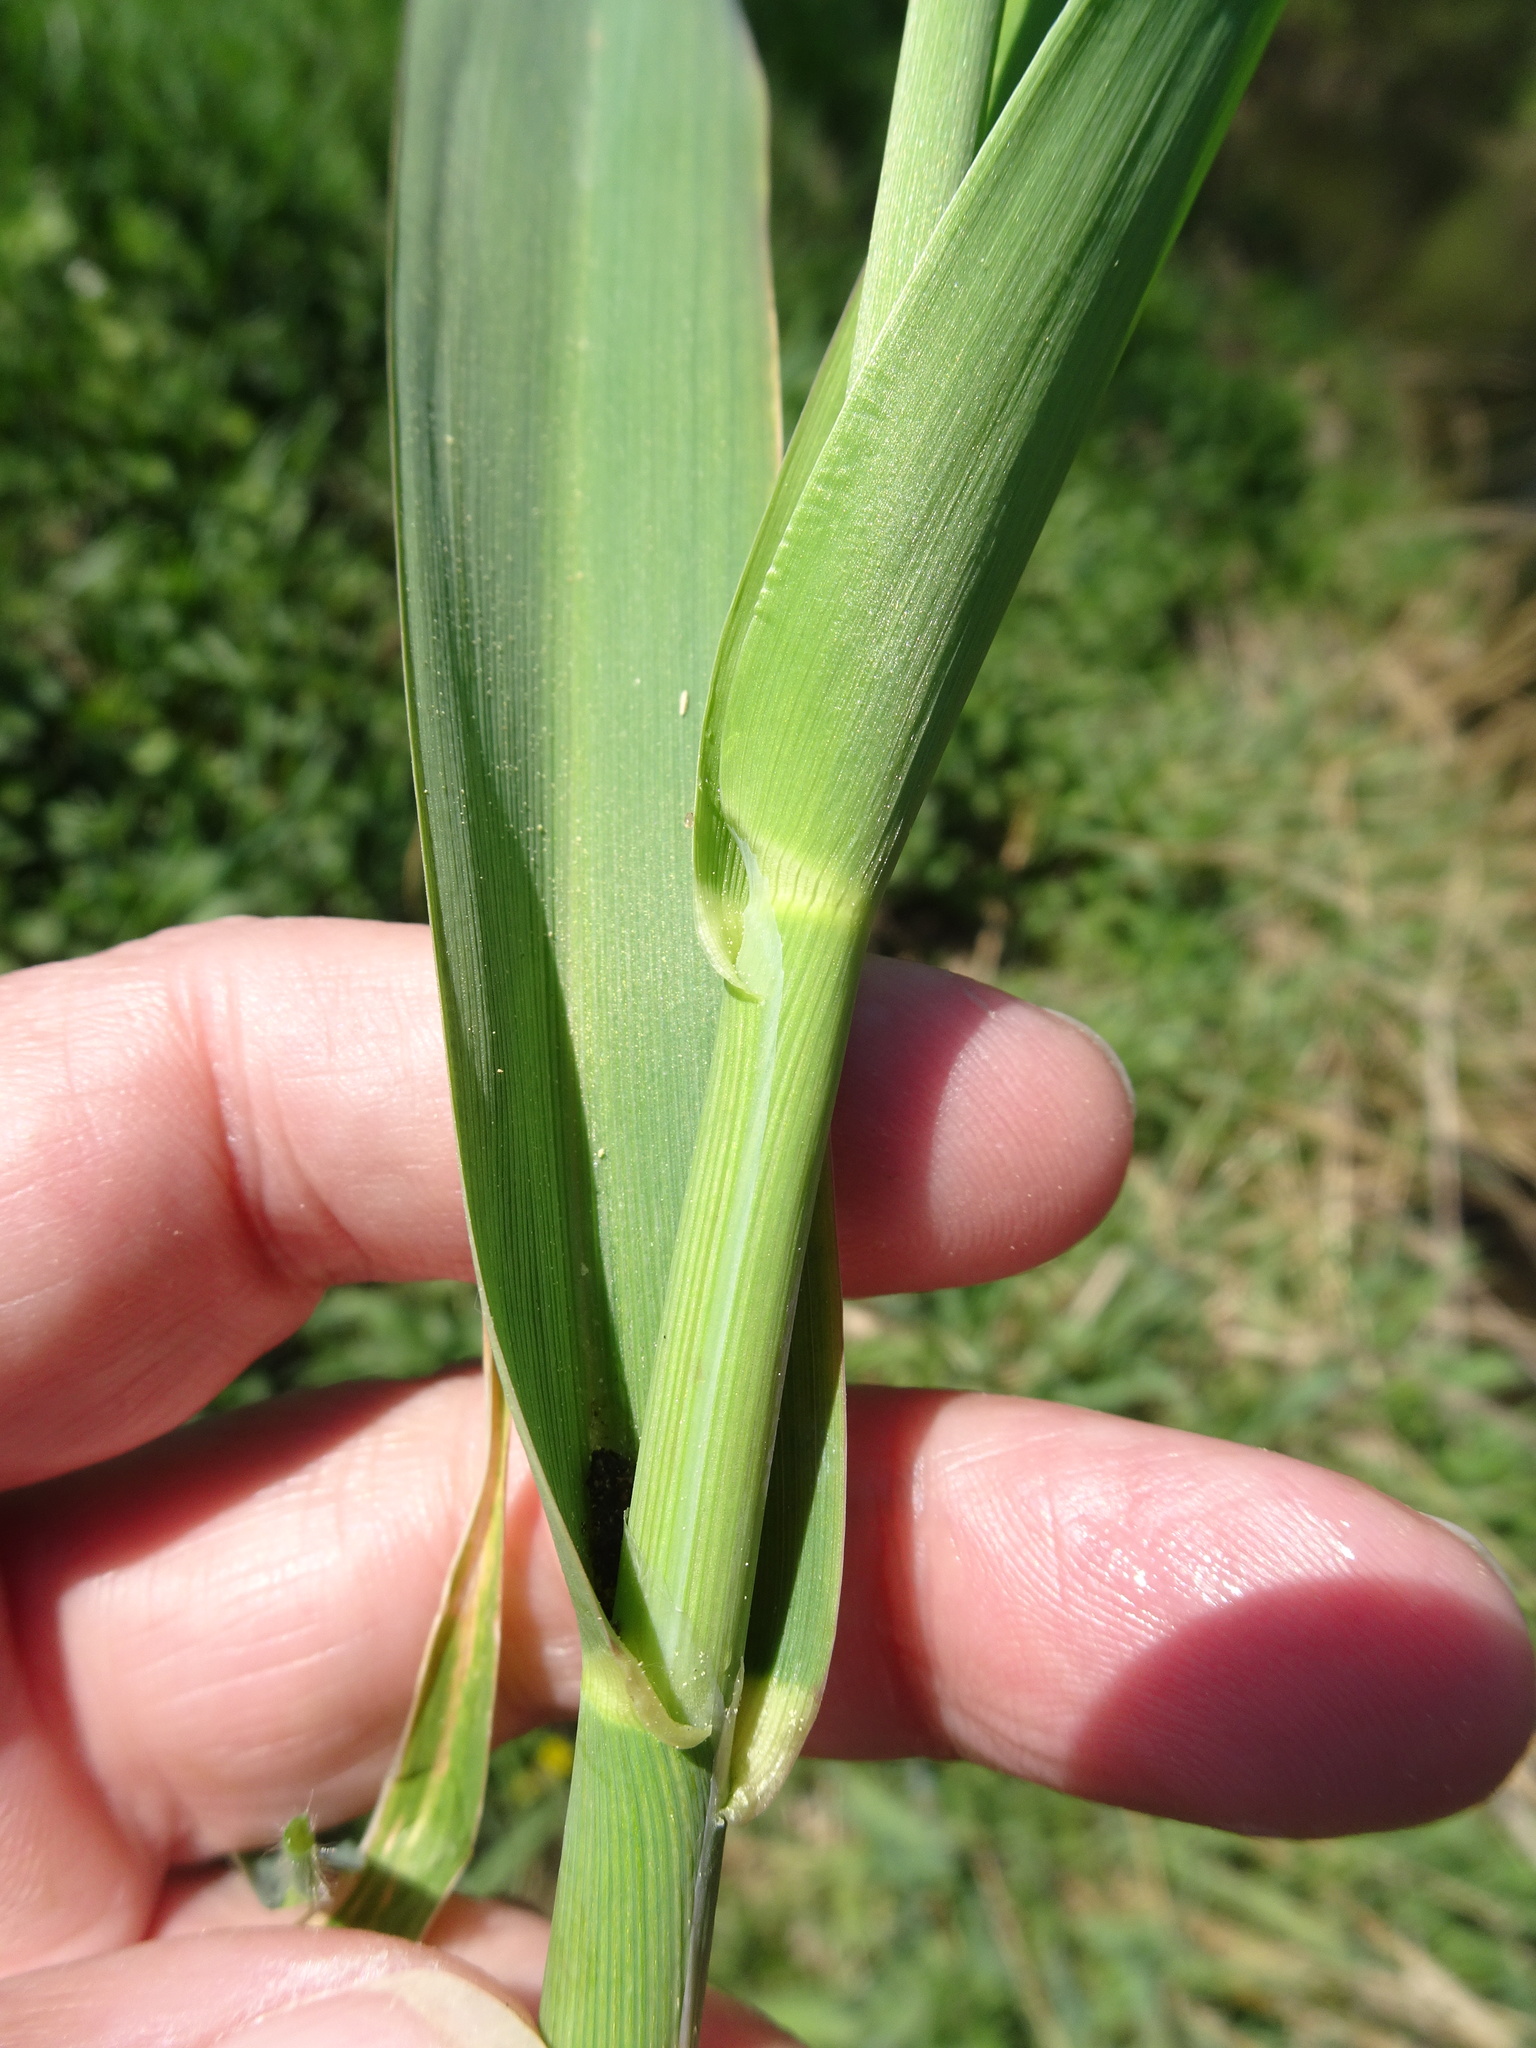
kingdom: Plantae
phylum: Tracheophyta
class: Liliopsida
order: Poales
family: Poaceae
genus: Phalaris
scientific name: Phalaris arundinacea
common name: Reed canary-grass
